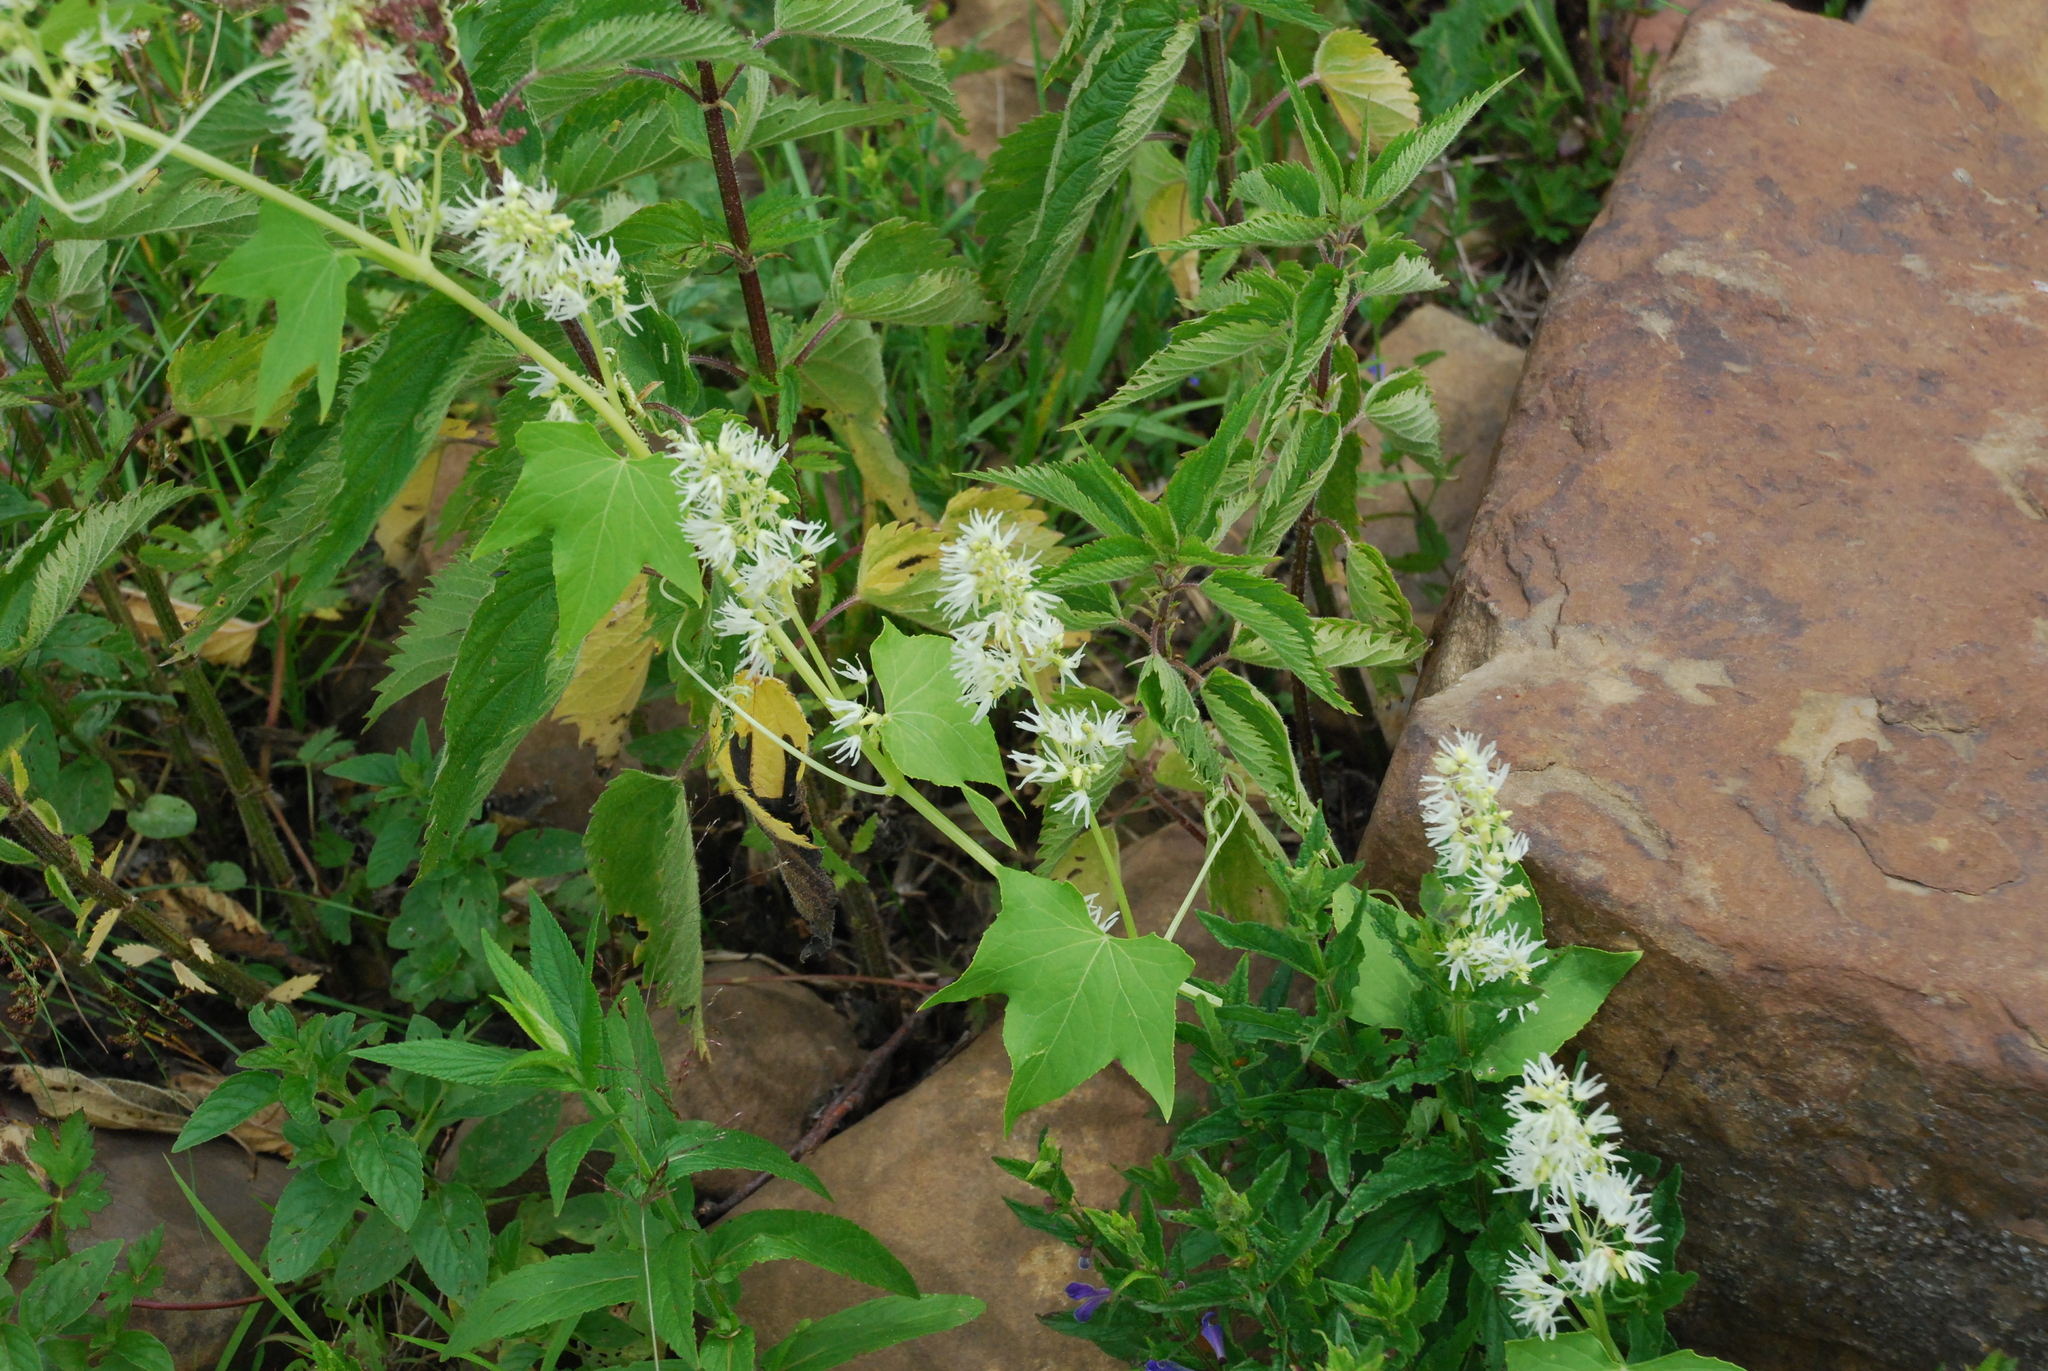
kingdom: Plantae
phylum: Tracheophyta
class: Magnoliopsida
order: Cucurbitales
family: Cucurbitaceae
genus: Echinocystis
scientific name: Echinocystis lobata
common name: Wild cucumber
